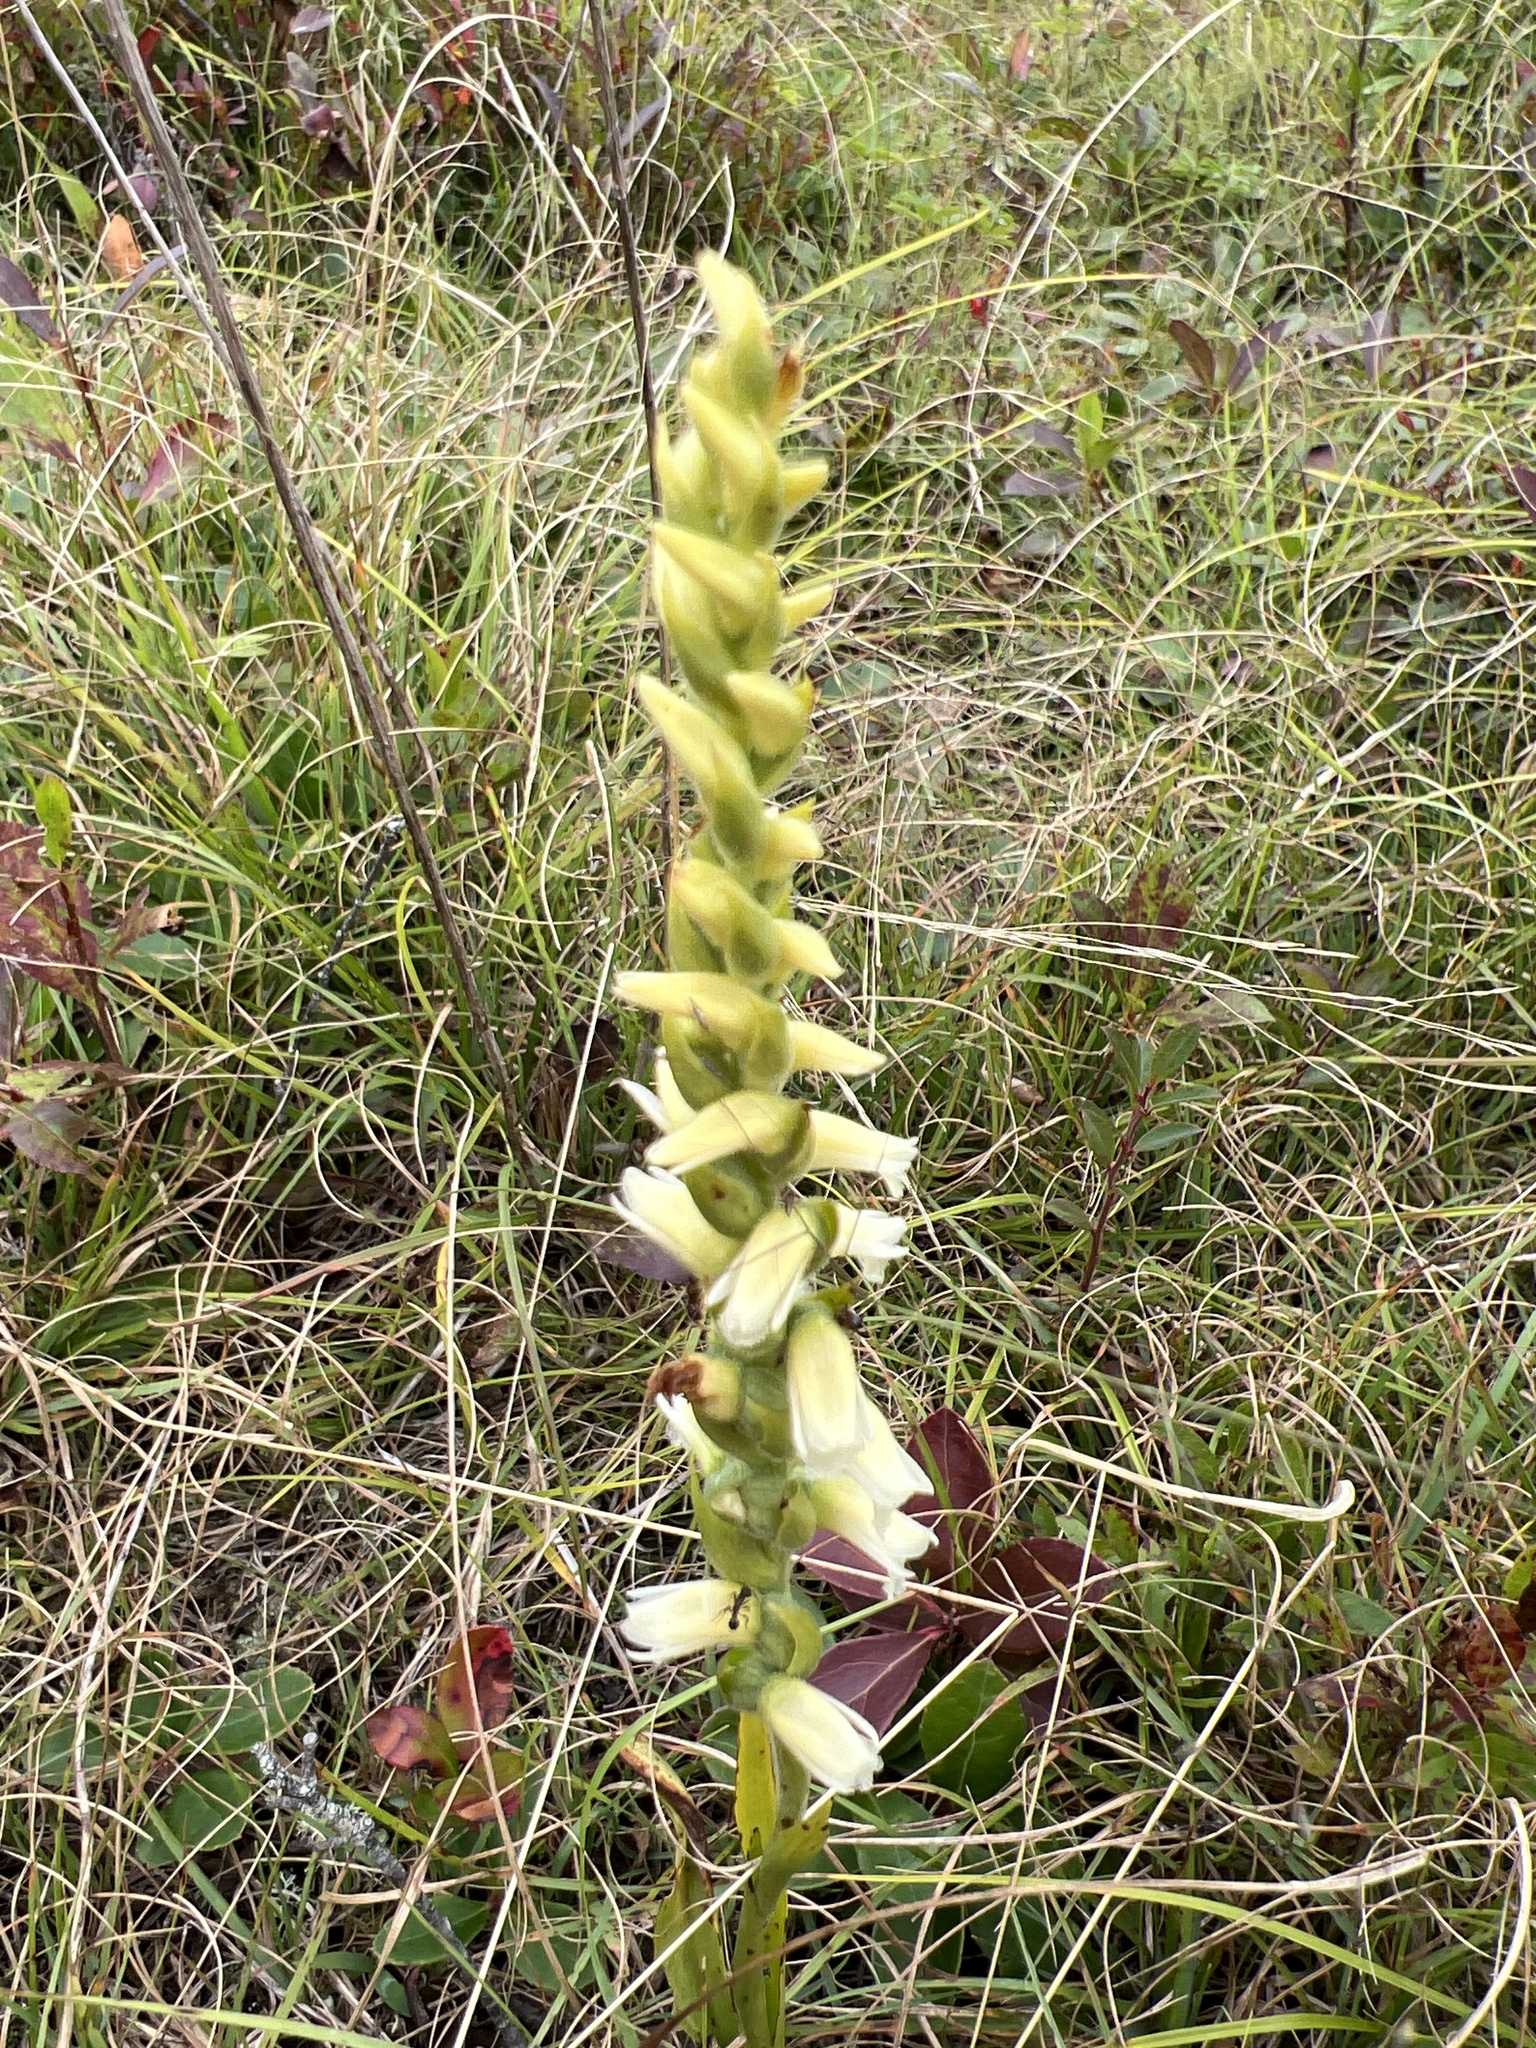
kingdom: Plantae
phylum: Tracheophyta
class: Liliopsida
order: Asparagales
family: Orchidaceae
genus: Spiranthes
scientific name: Spiranthes ochroleuca
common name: Yellow ladies'-tresses
